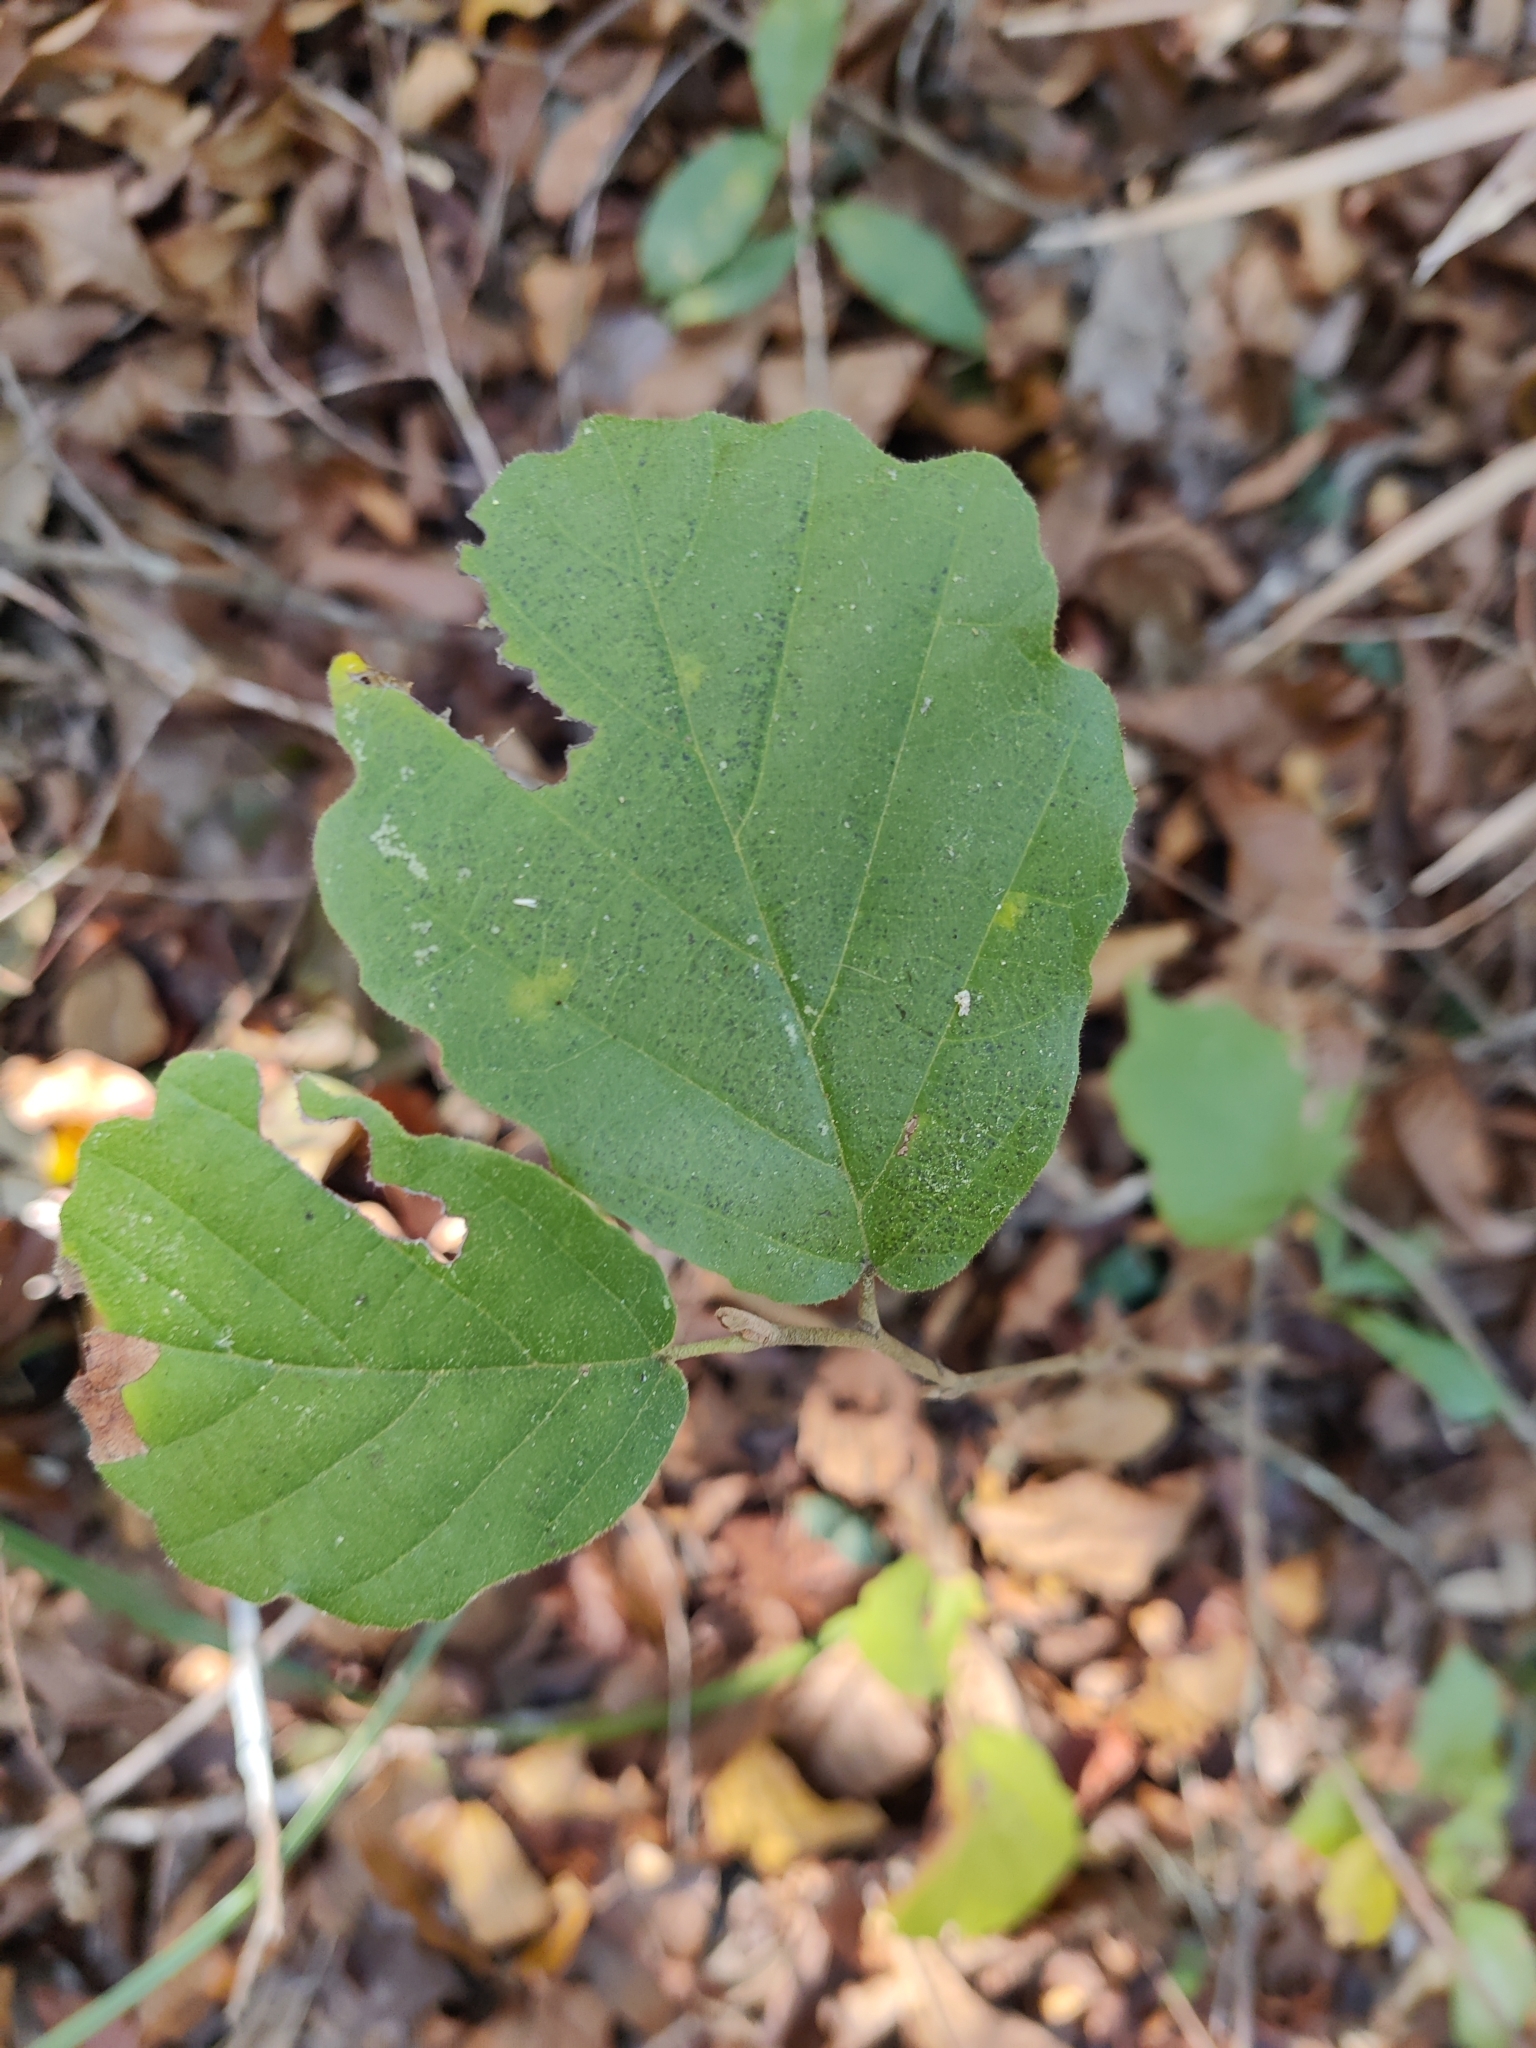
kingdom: Plantae
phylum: Tracheophyta
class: Magnoliopsida
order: Saxifragales
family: Hamamelidaceae
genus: Hamamelis
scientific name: Hamamelis virginiana
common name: Witch-hazel
